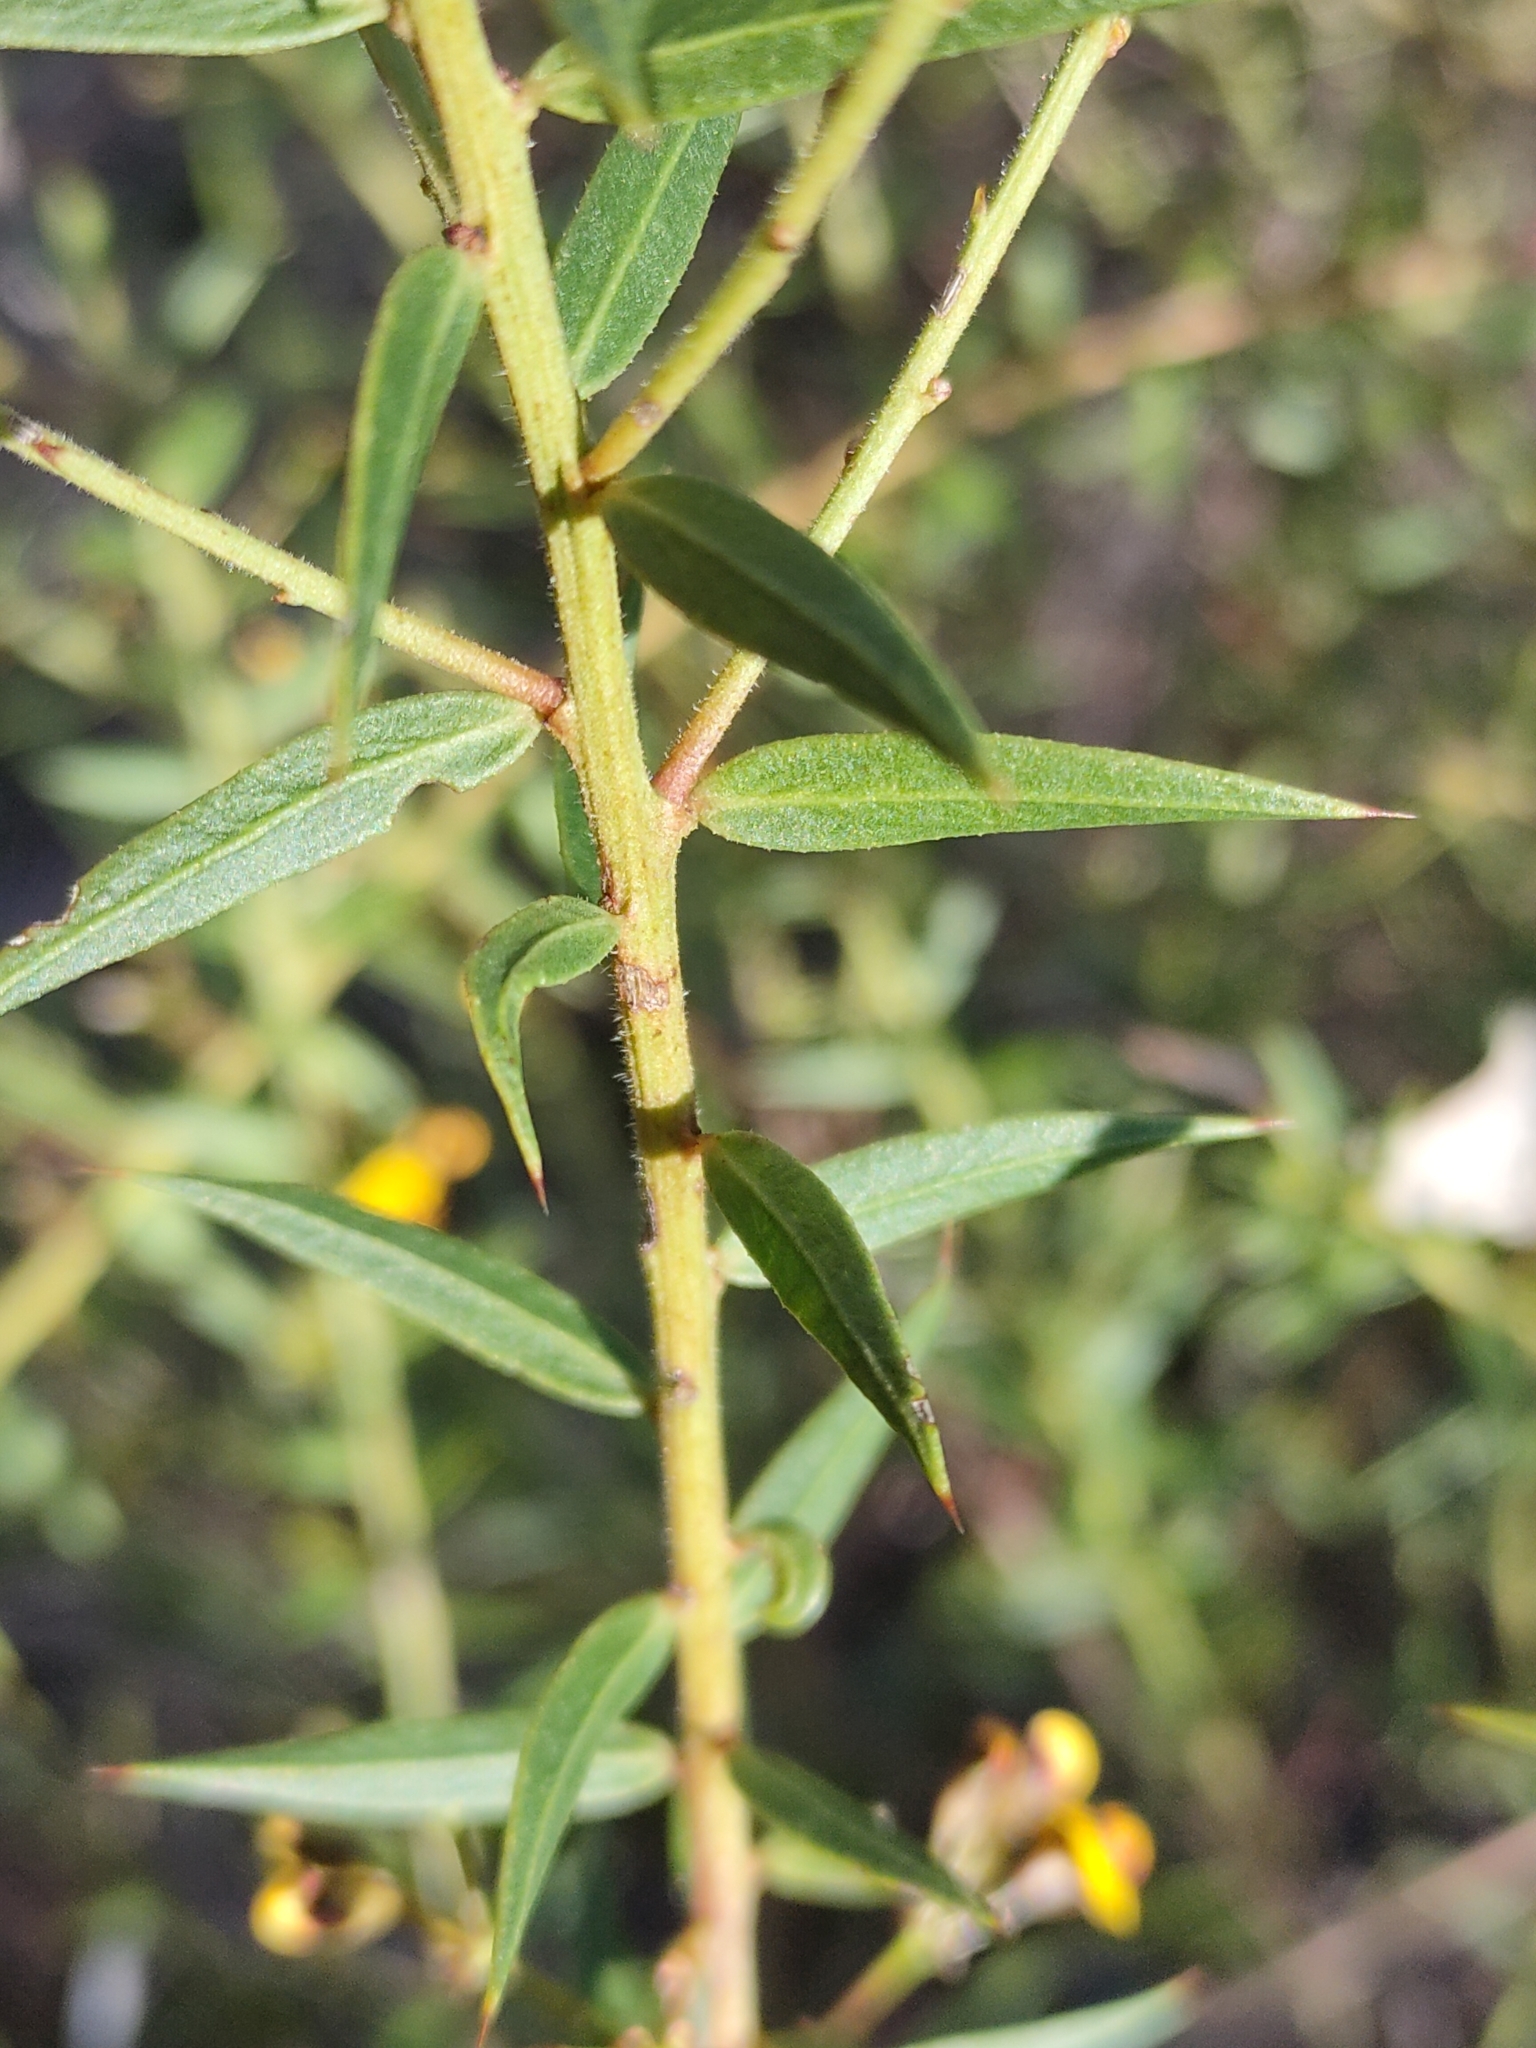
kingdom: Plantae
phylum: Tracheophyta
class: Magnoliopsida
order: Fabales
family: Fabaceae
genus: Daviesia
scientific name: Daviesia umbellulata
